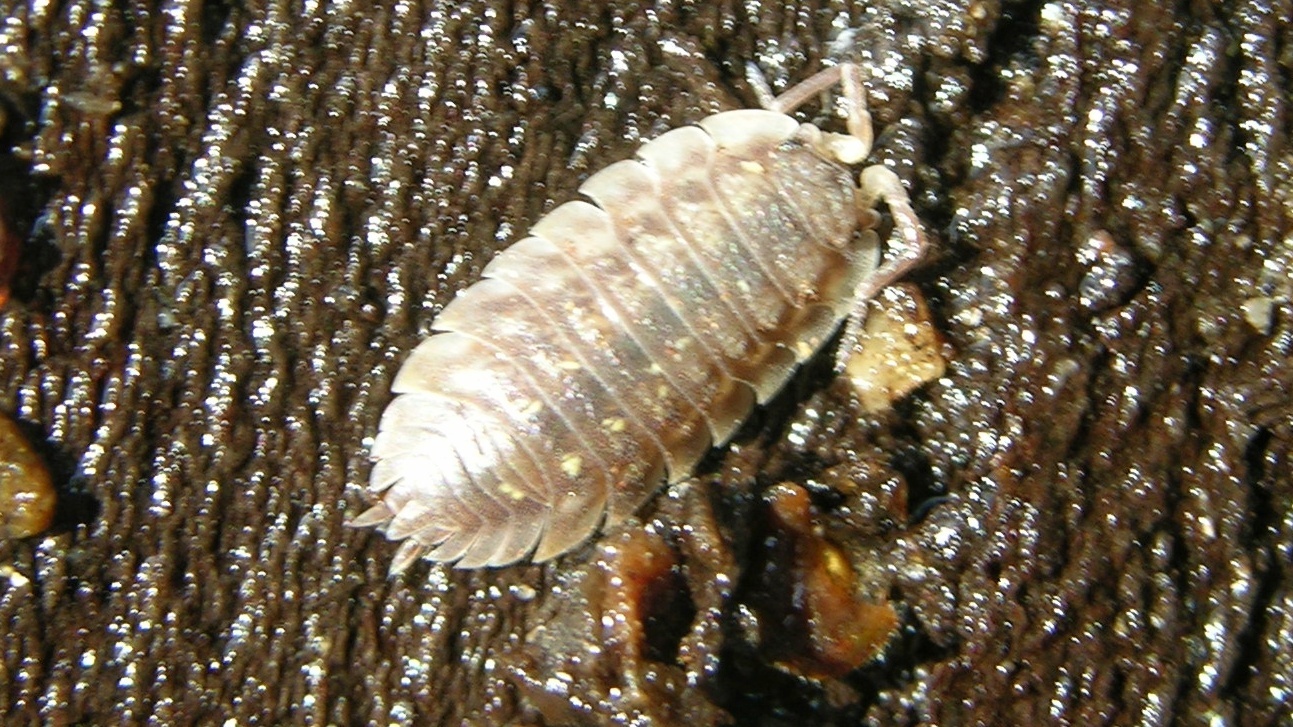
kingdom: Animalia
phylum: Arthropoda
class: Malacostraca
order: Isopoda
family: Oniscidae
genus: Oniscus
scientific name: Oniscus asellus
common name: Common shiny woodlouse
